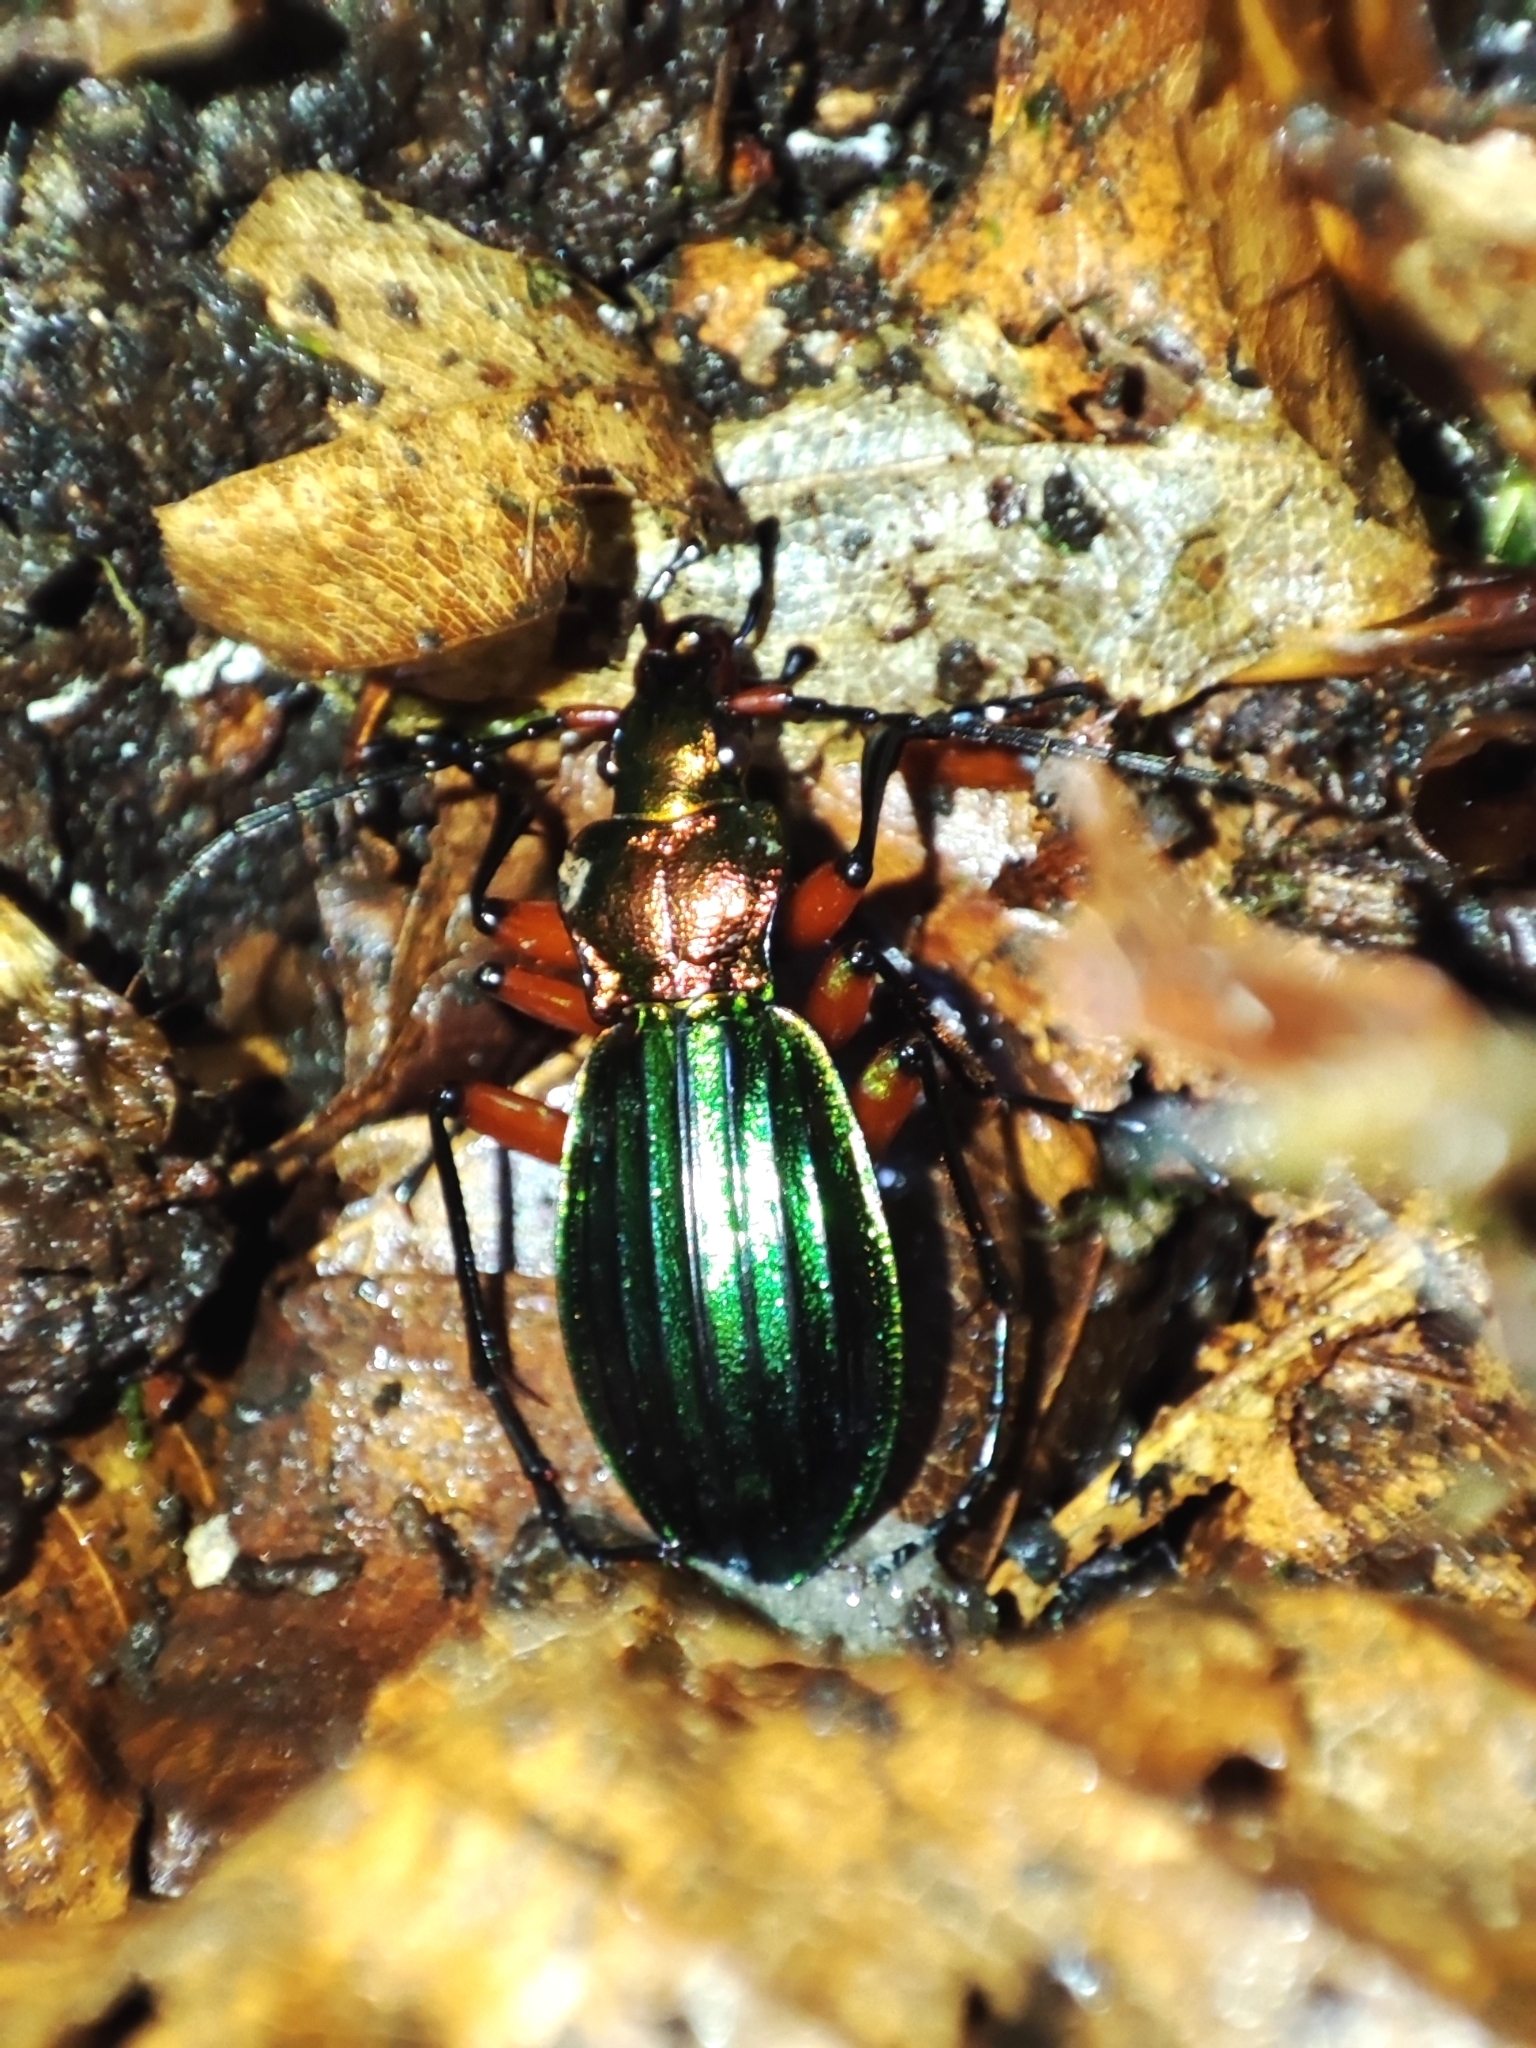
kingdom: Animalia
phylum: Arthropoda
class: Insecta
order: Coleoptera
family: Carabidae
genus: Carabus
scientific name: Carabus auronitens
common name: Carabus auronitens
